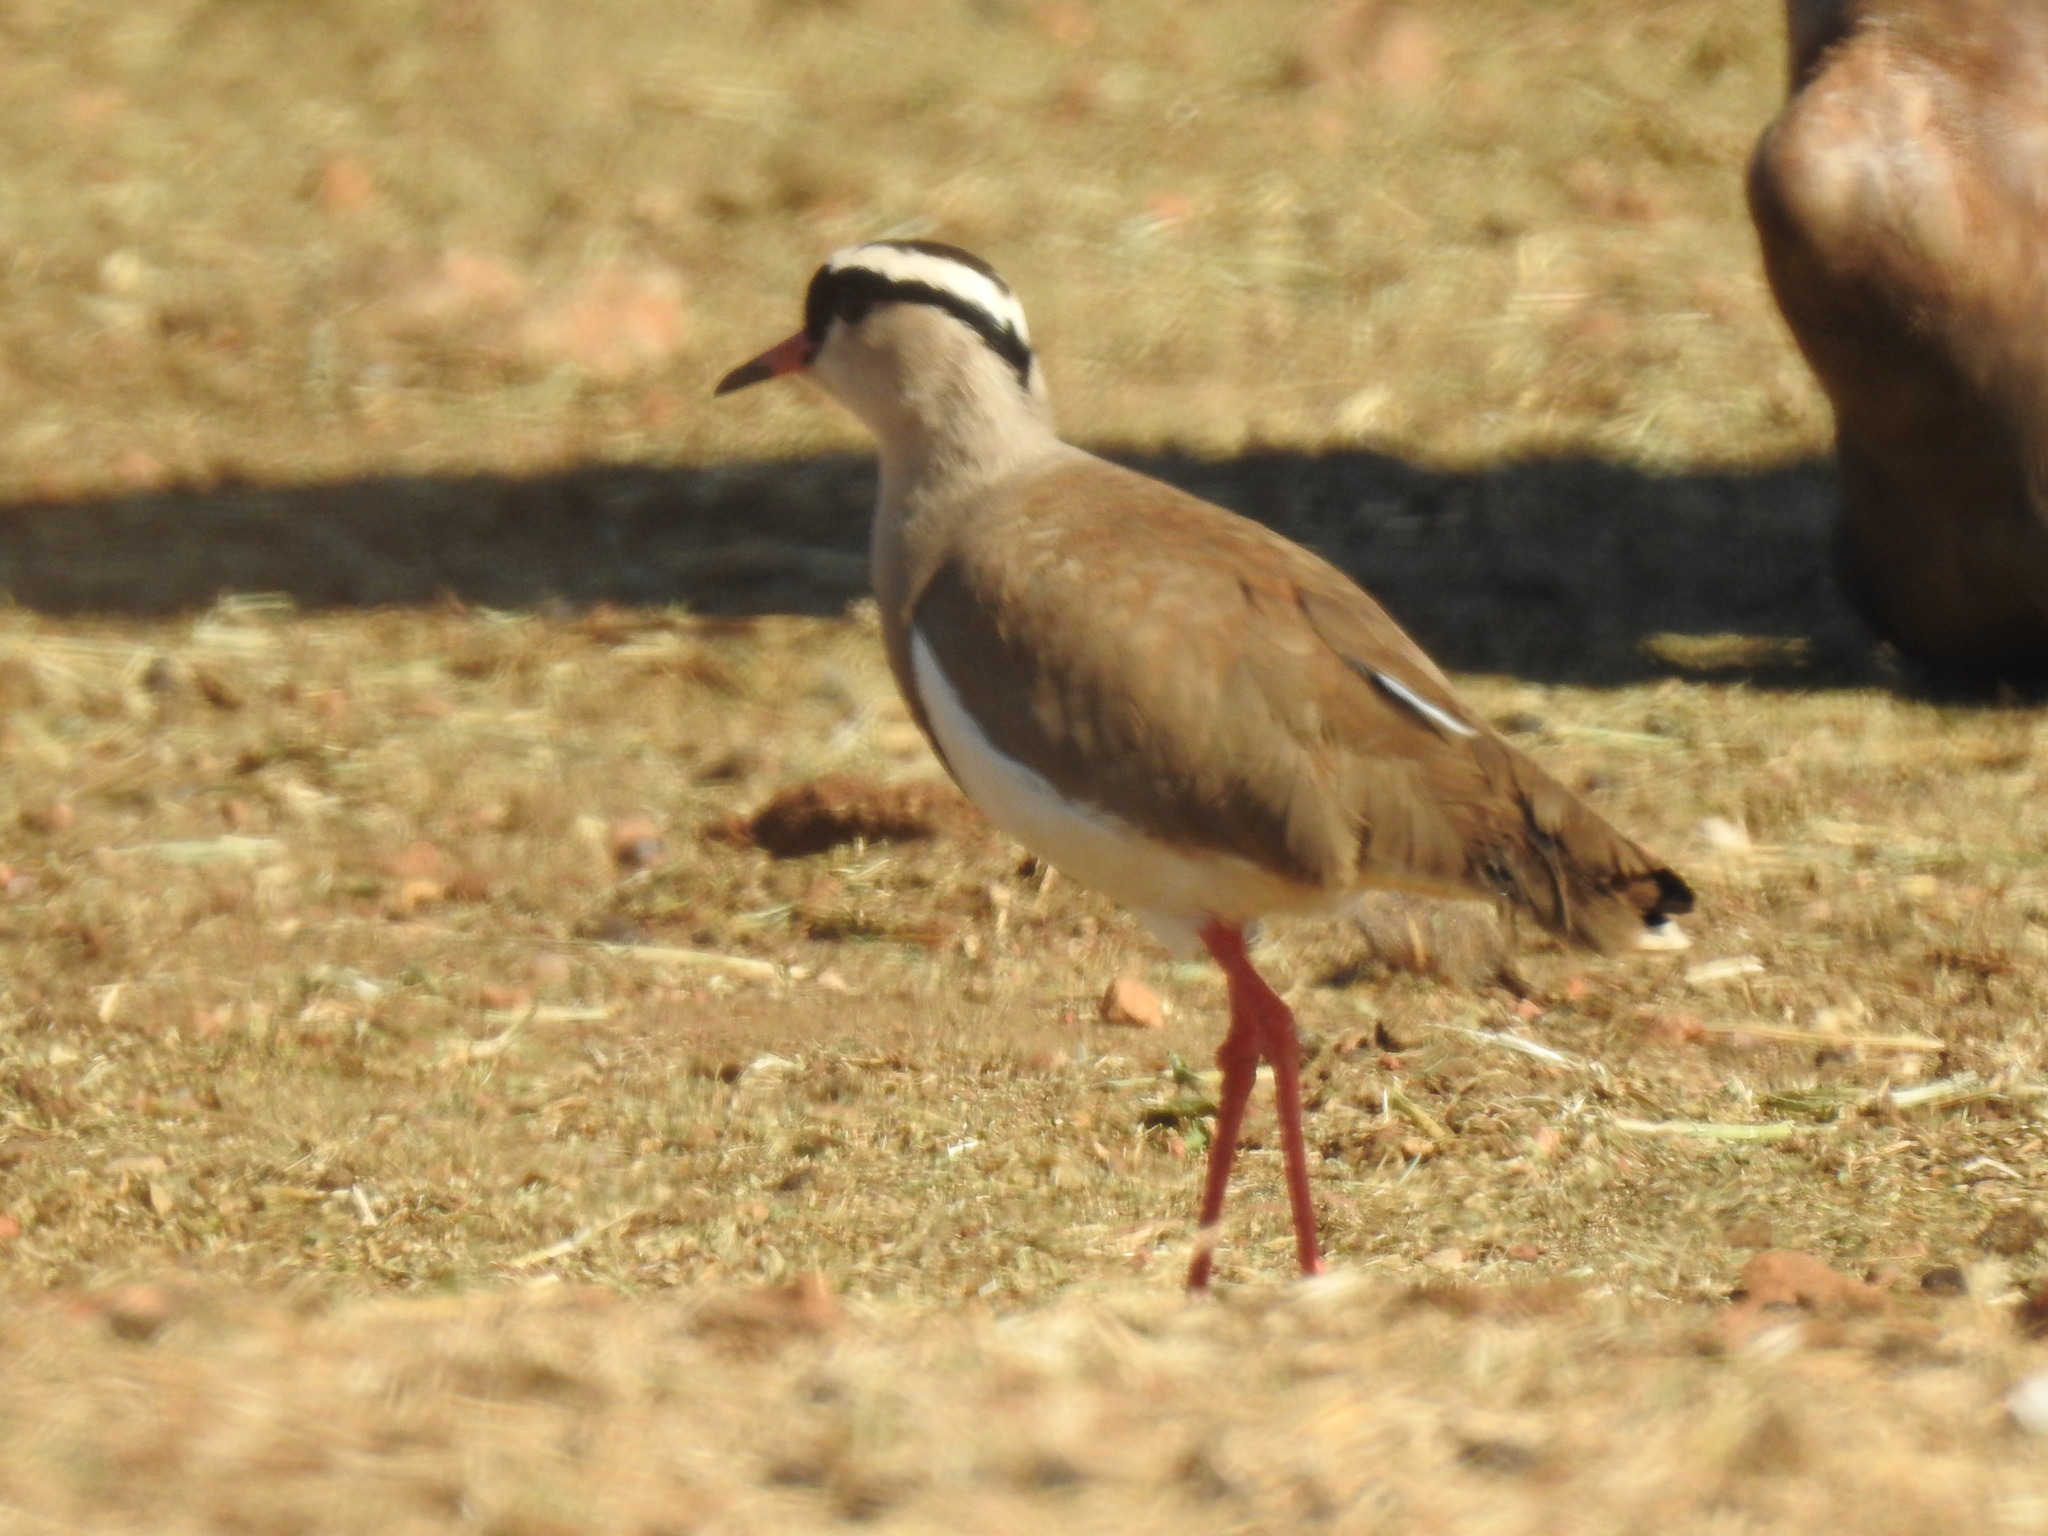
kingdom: Animalia
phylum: Chordata
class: Aves
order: Charadriiformes
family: Charadriidae
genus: Vanellus
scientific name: Vanellus coronatus
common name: Crowned lapwing
